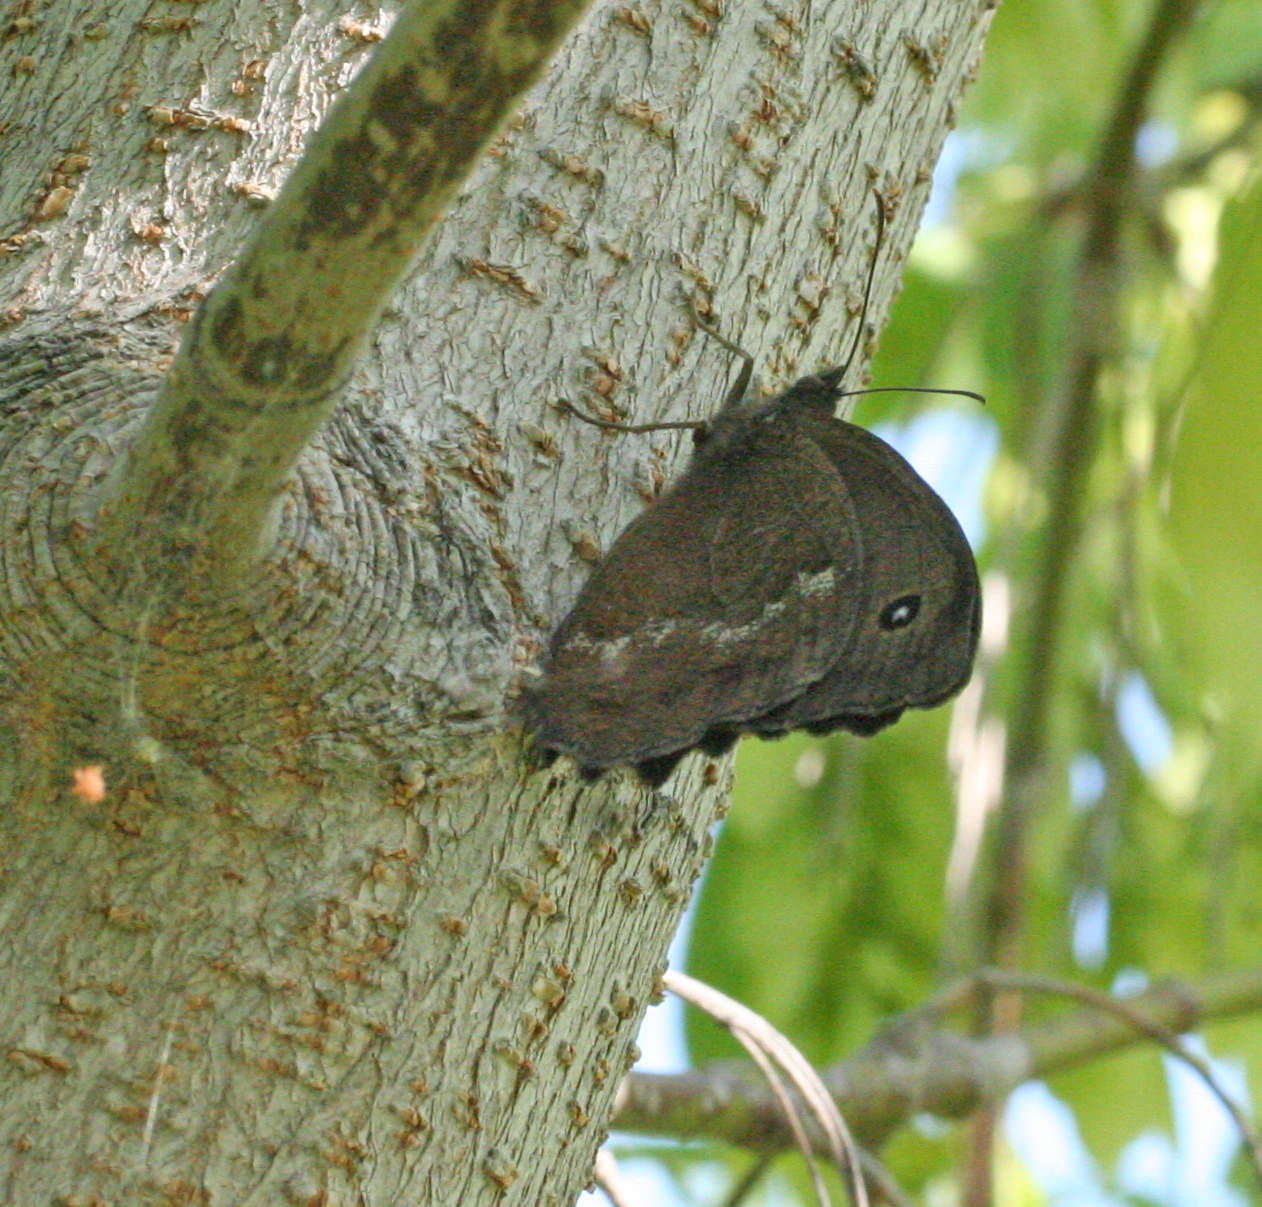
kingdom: Animalia
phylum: Arthropoda
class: Insecta
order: Lepidoptera
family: Nymphalidae
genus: Minois
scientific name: Minois dryas
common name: Dryad
